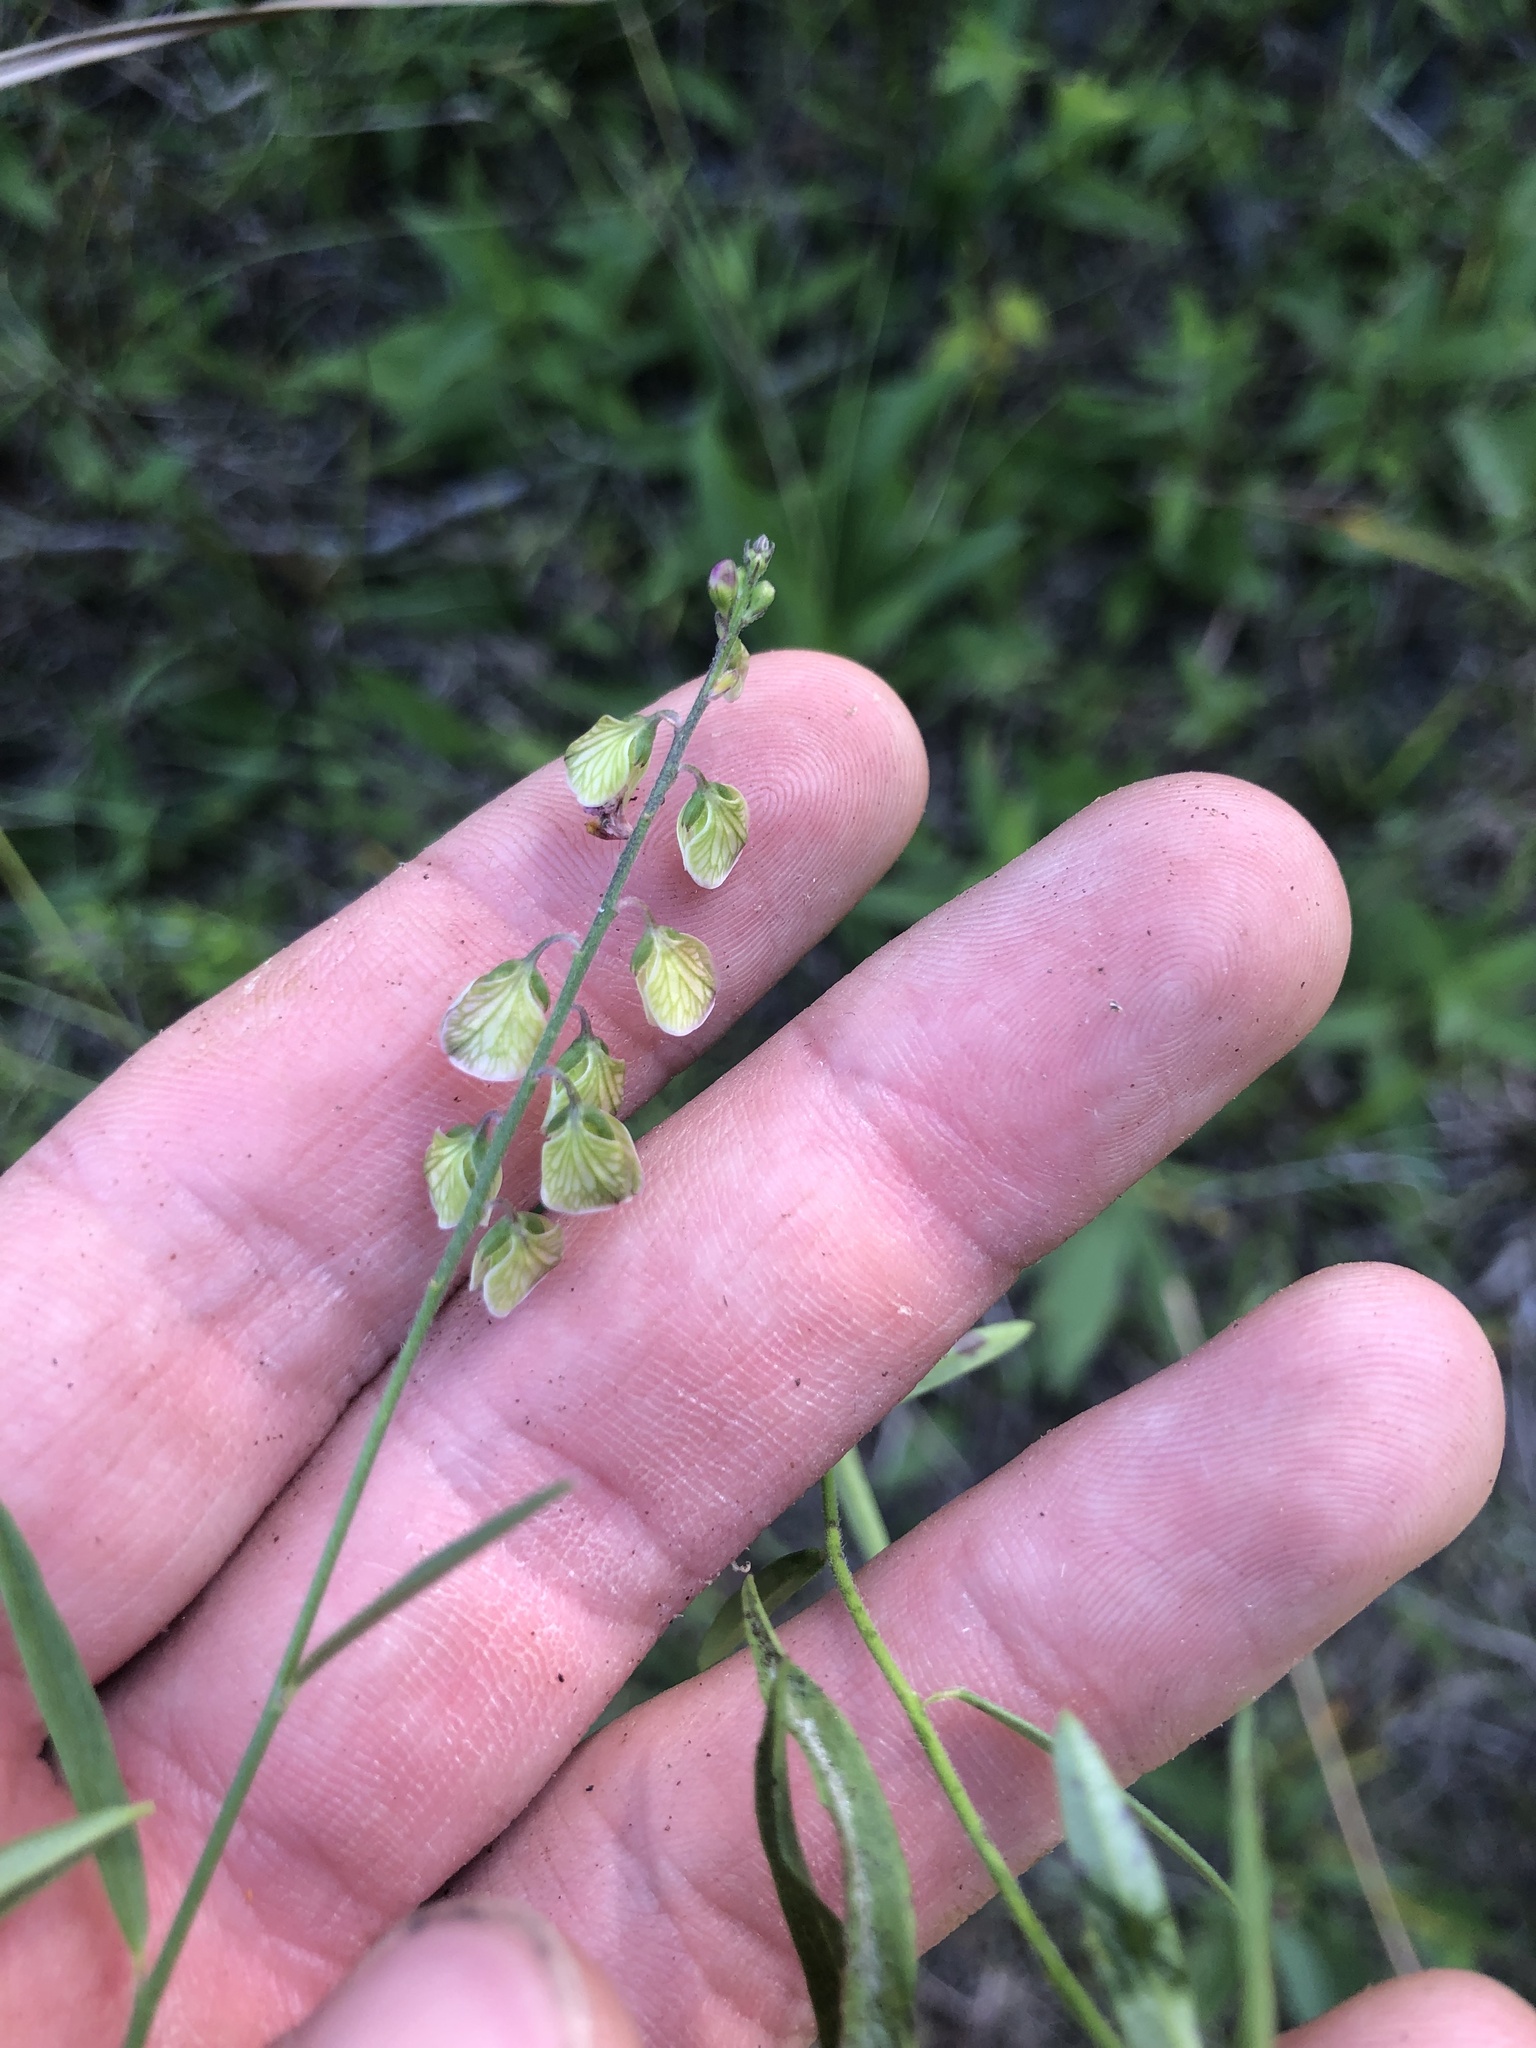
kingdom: Plantae
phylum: Tracheophyta
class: Magnoliopsida
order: Fabales
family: Polygalaceae
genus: Asemeia
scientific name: Asemeia grandiflora
